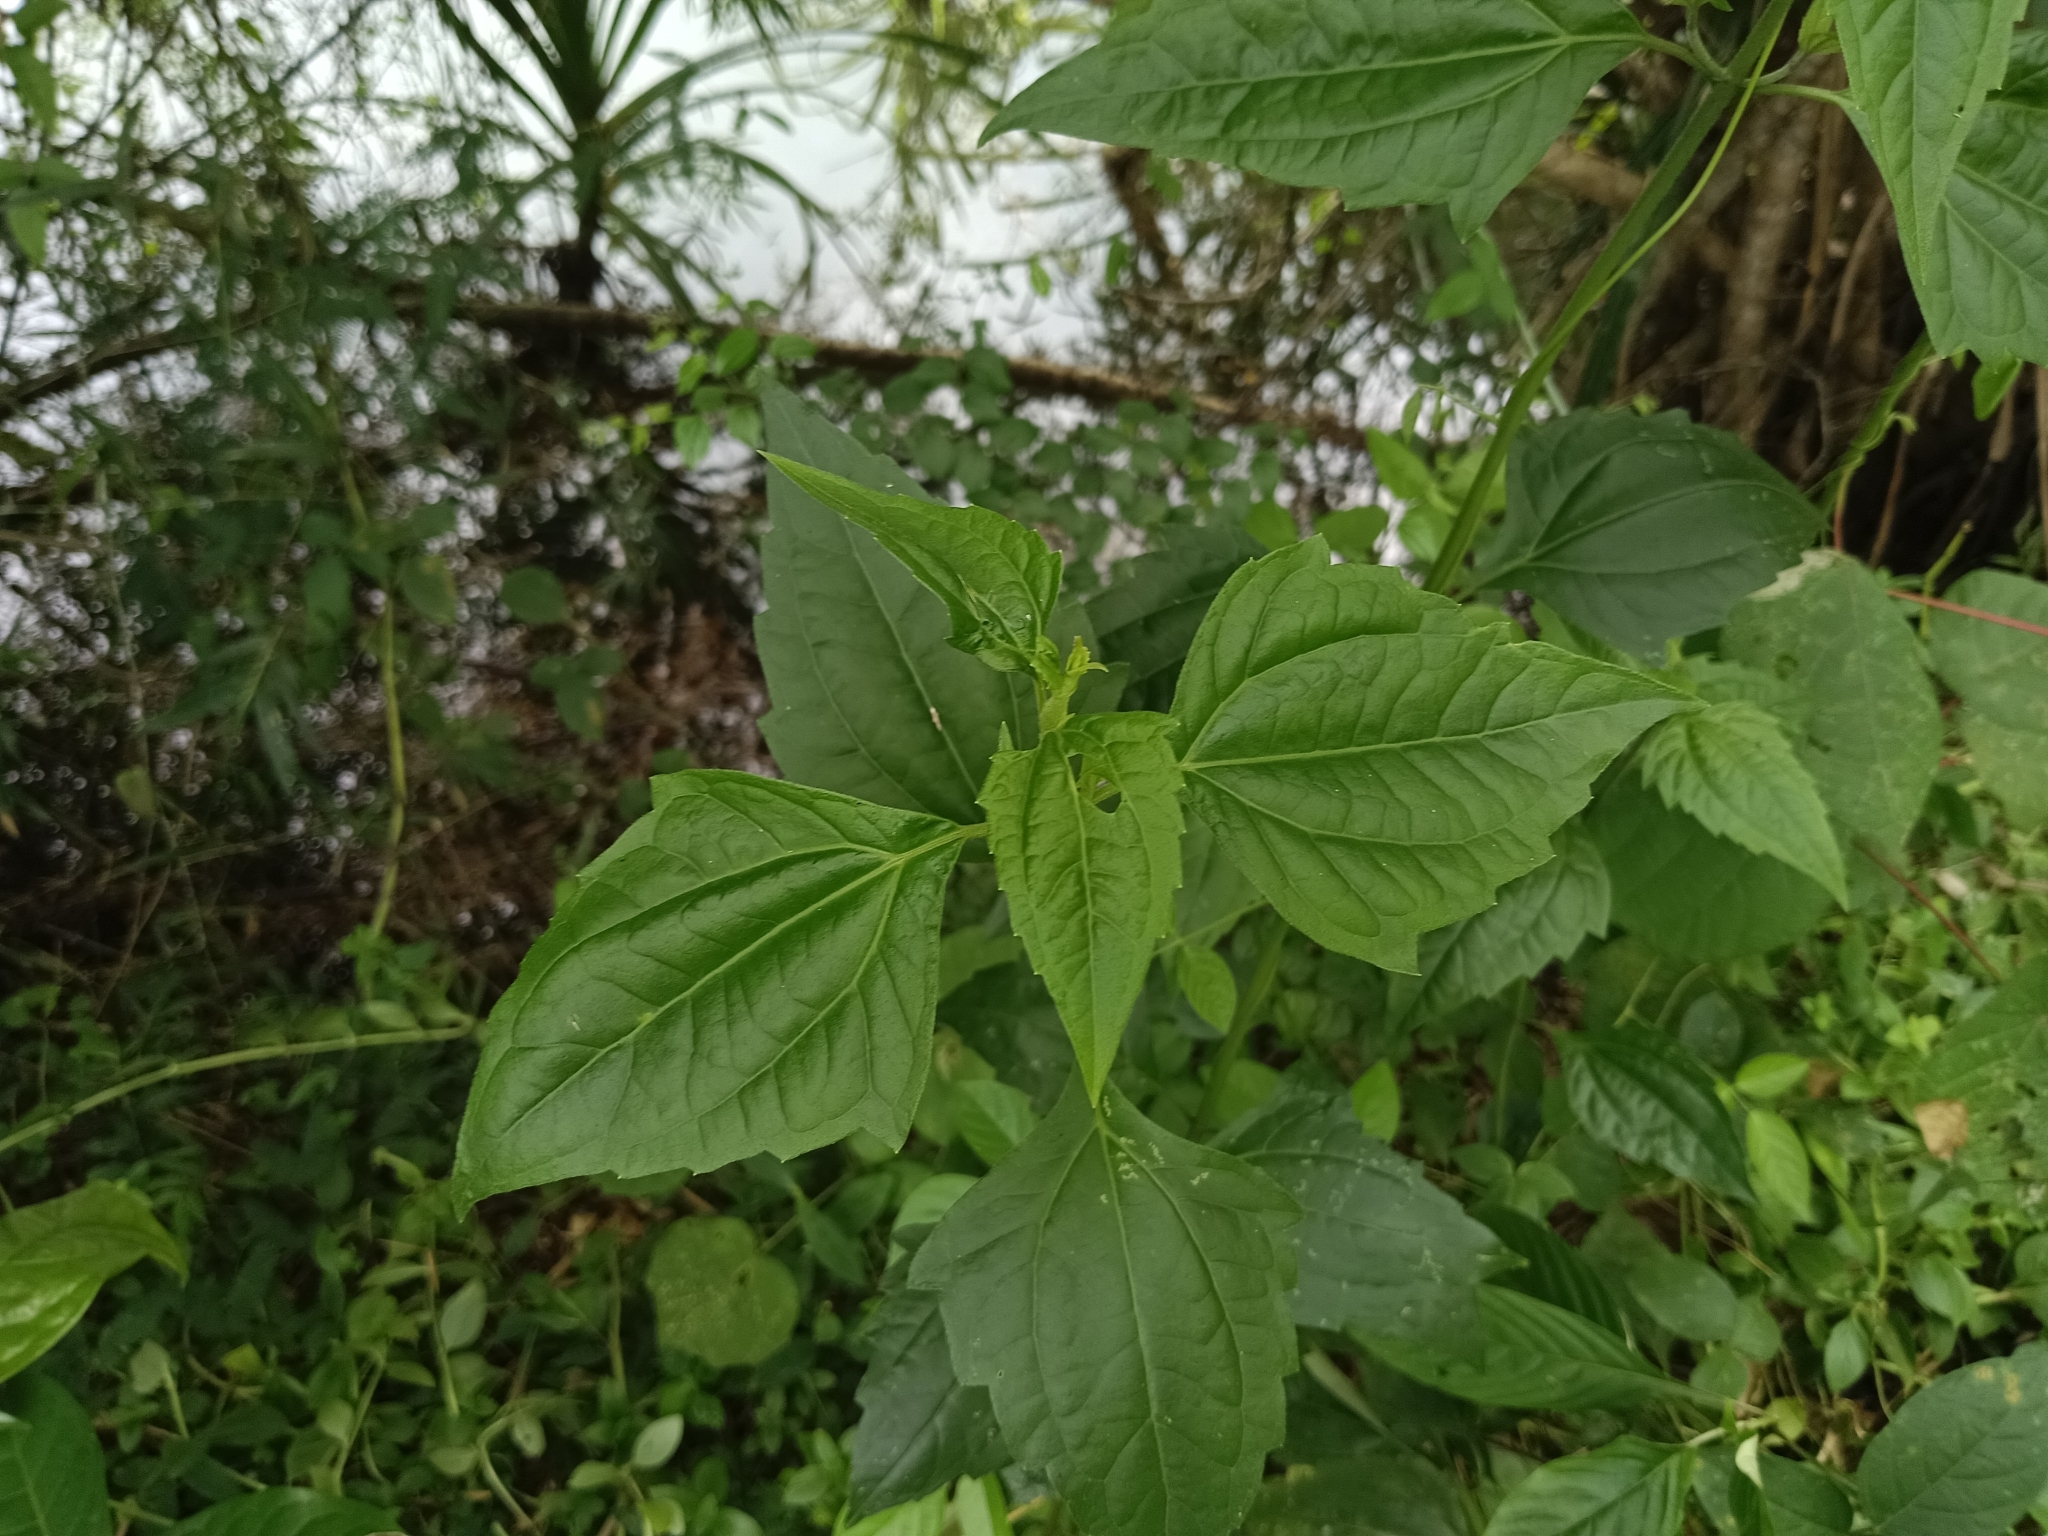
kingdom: Plantae
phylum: Tracheophyta
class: Magnoliopsida
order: Asterales
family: Asteraceae
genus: Chromolaena
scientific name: Chromolaena odorata
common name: Siamweed
